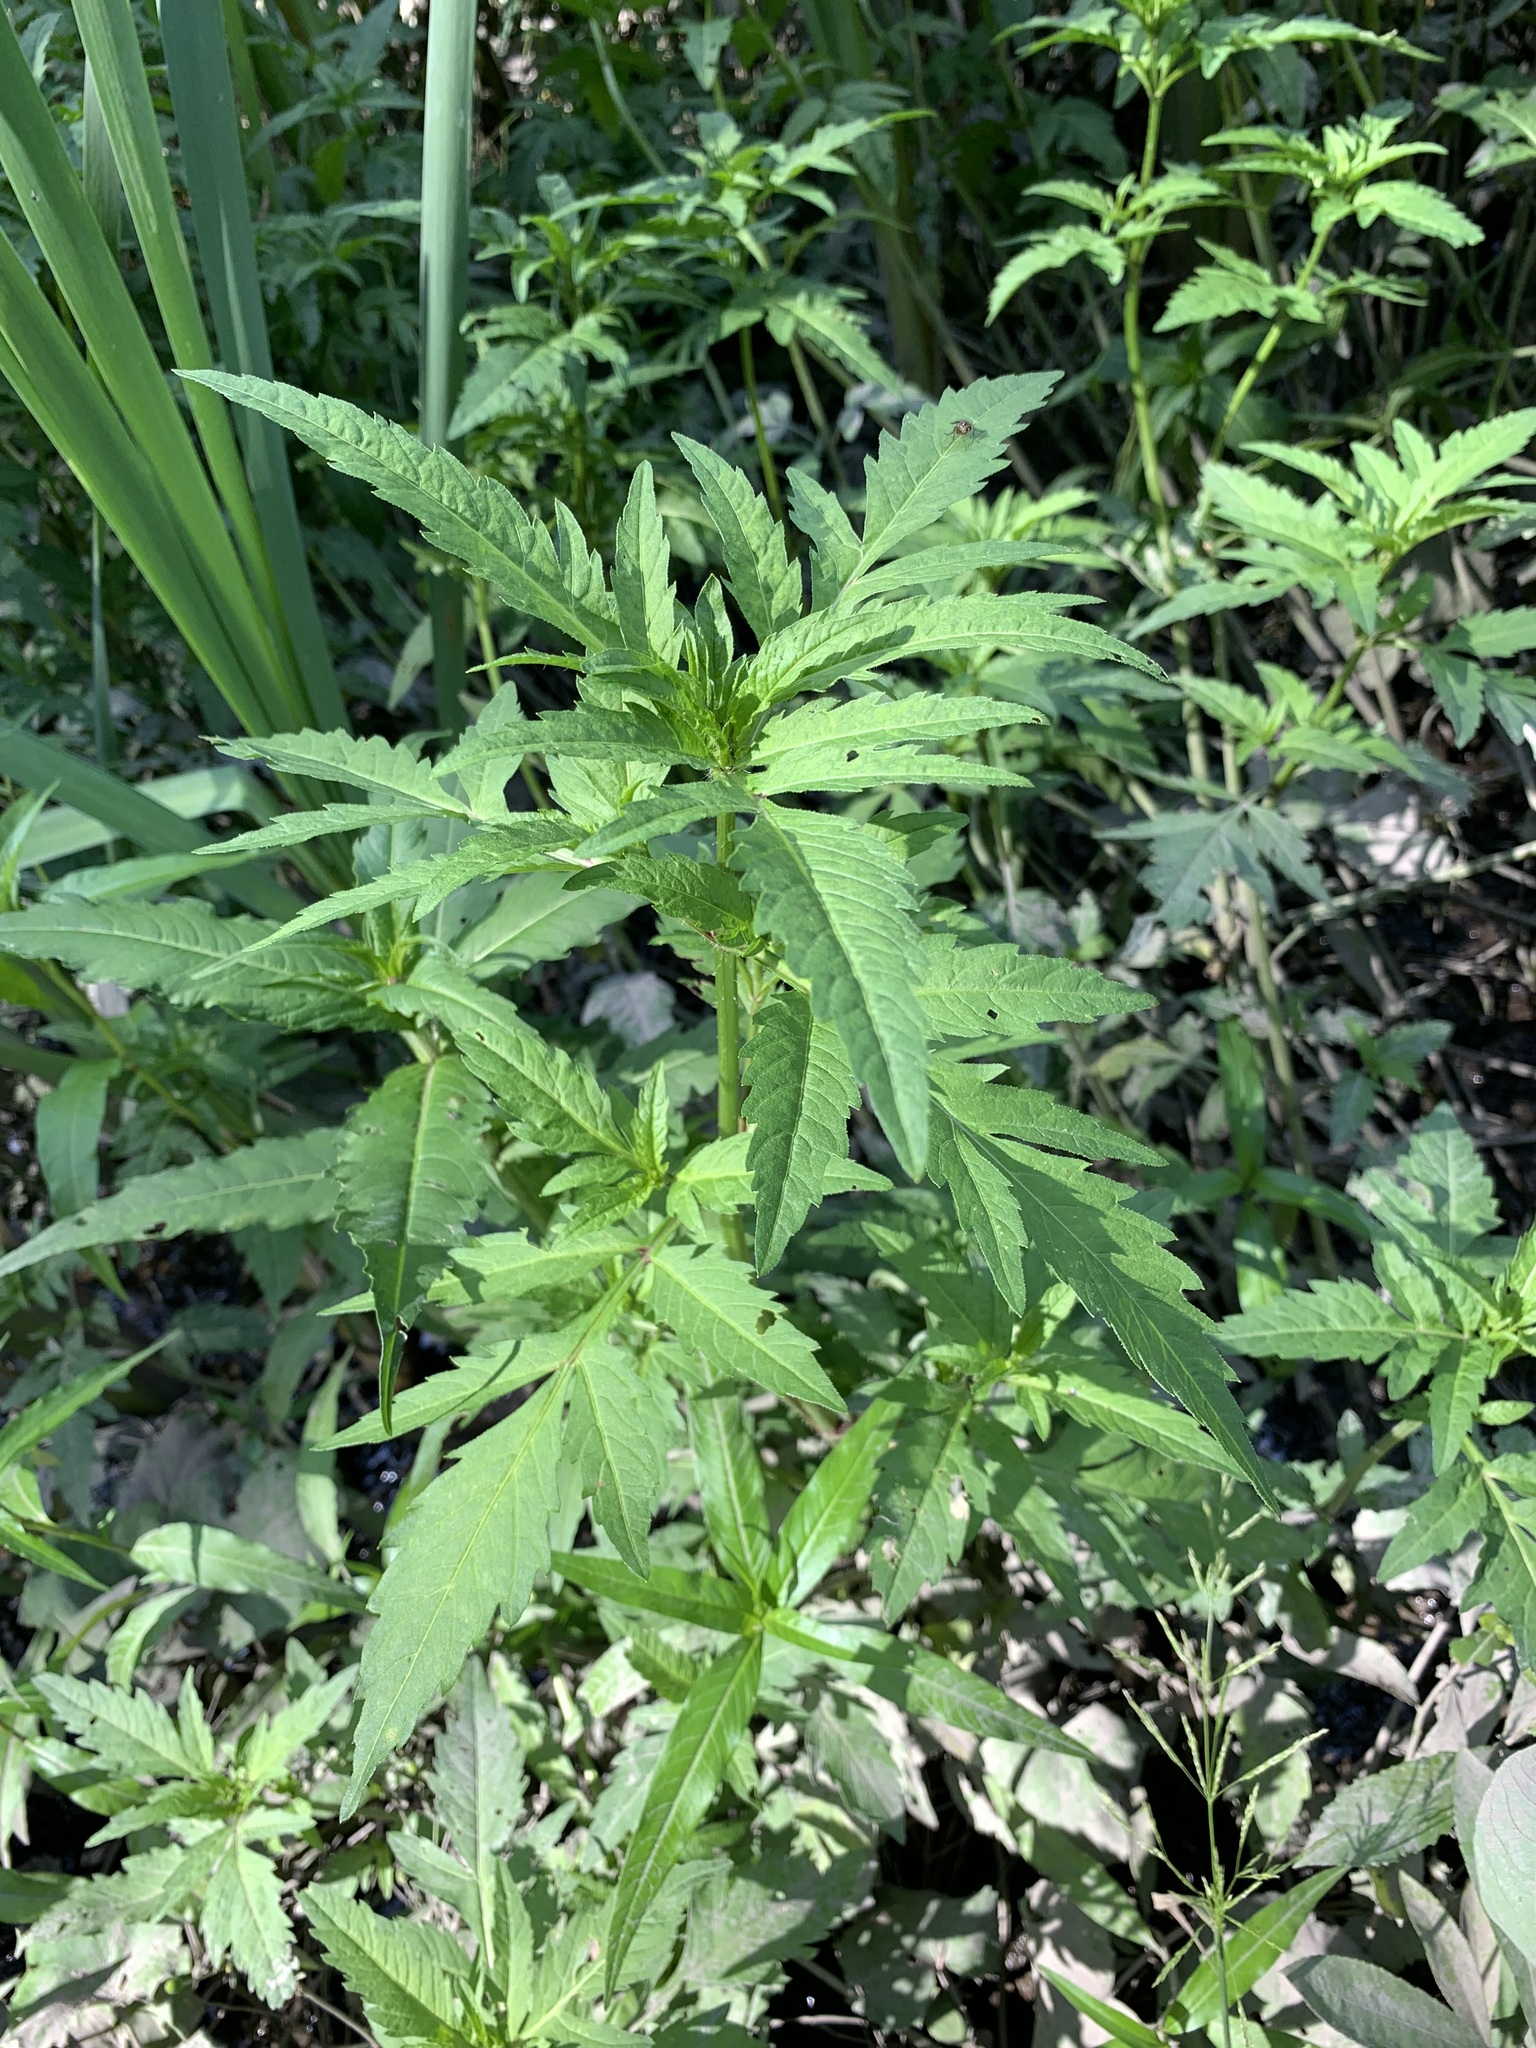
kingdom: Plantae
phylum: Tracheophyta
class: Magnoliopsida
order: Asterales
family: Asteraceae
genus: Bidens
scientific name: Bidens tripartita
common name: Trifid bur-marigold
